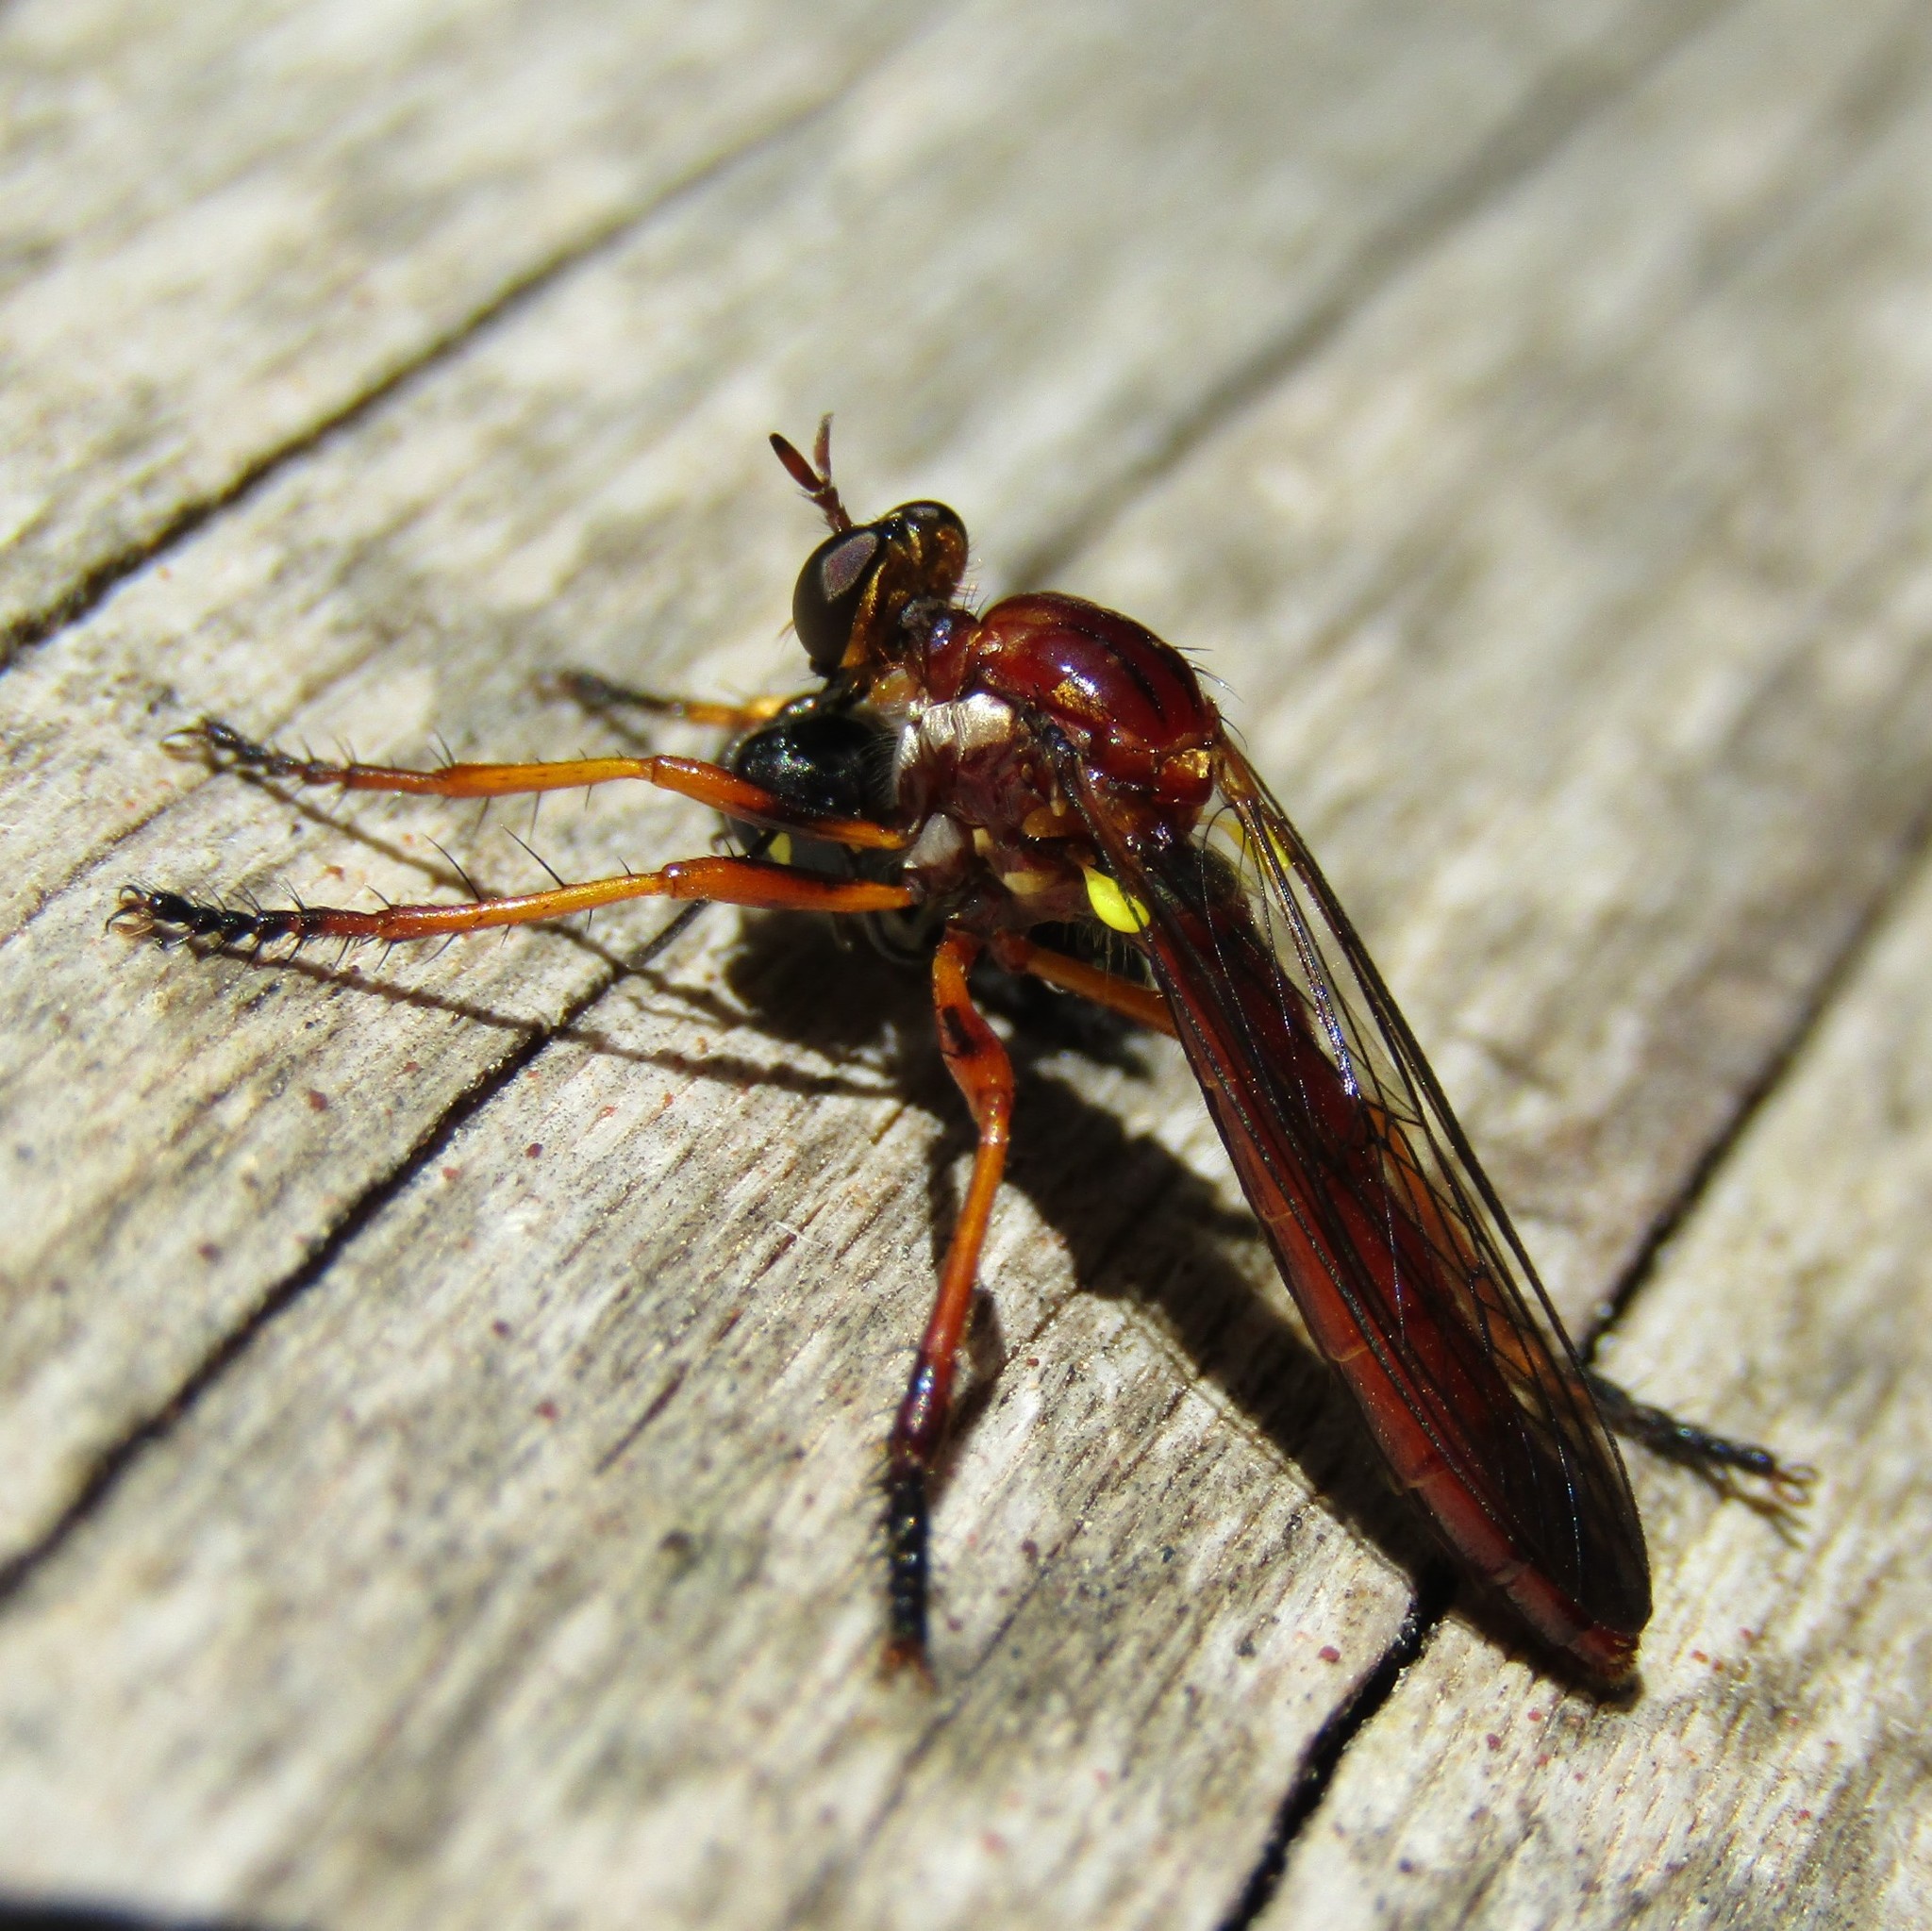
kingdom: Animalia
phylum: Arthropoda
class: Insecta
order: Diptera
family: Asilidae
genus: Saropogon
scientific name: Saropogon antipodus
